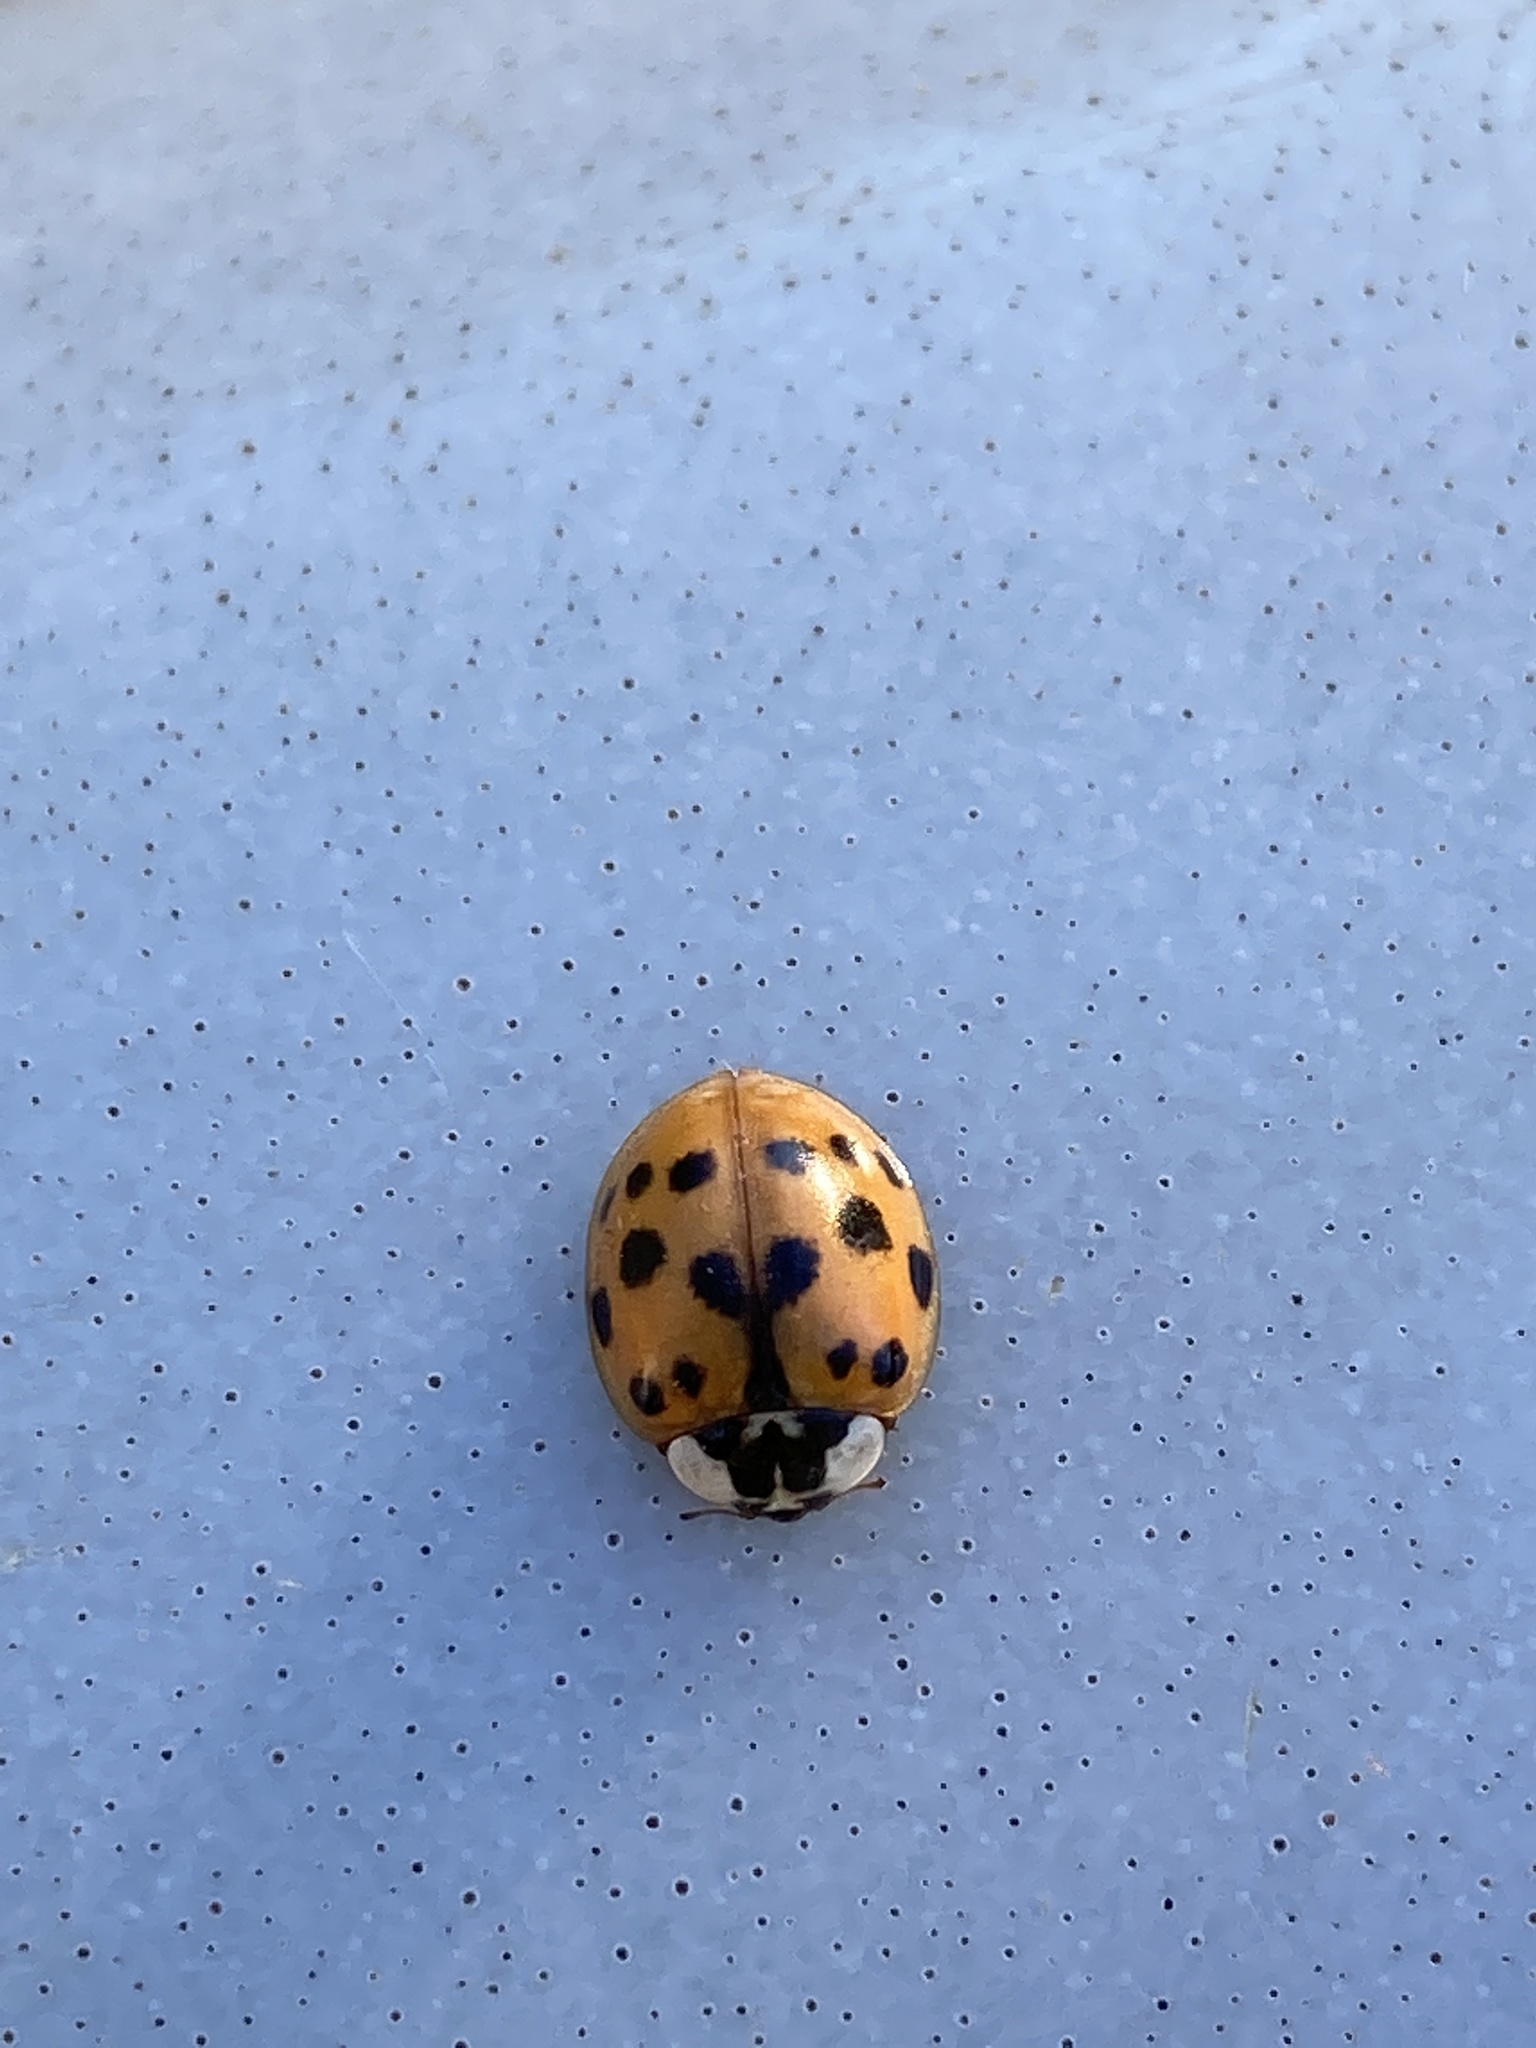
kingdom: Animalia
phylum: Arthropoda
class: Insecta
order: Coleoptera
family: Coccinellidae
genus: Harmonia
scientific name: Harmonia axyridis
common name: Harlequin ladybird
